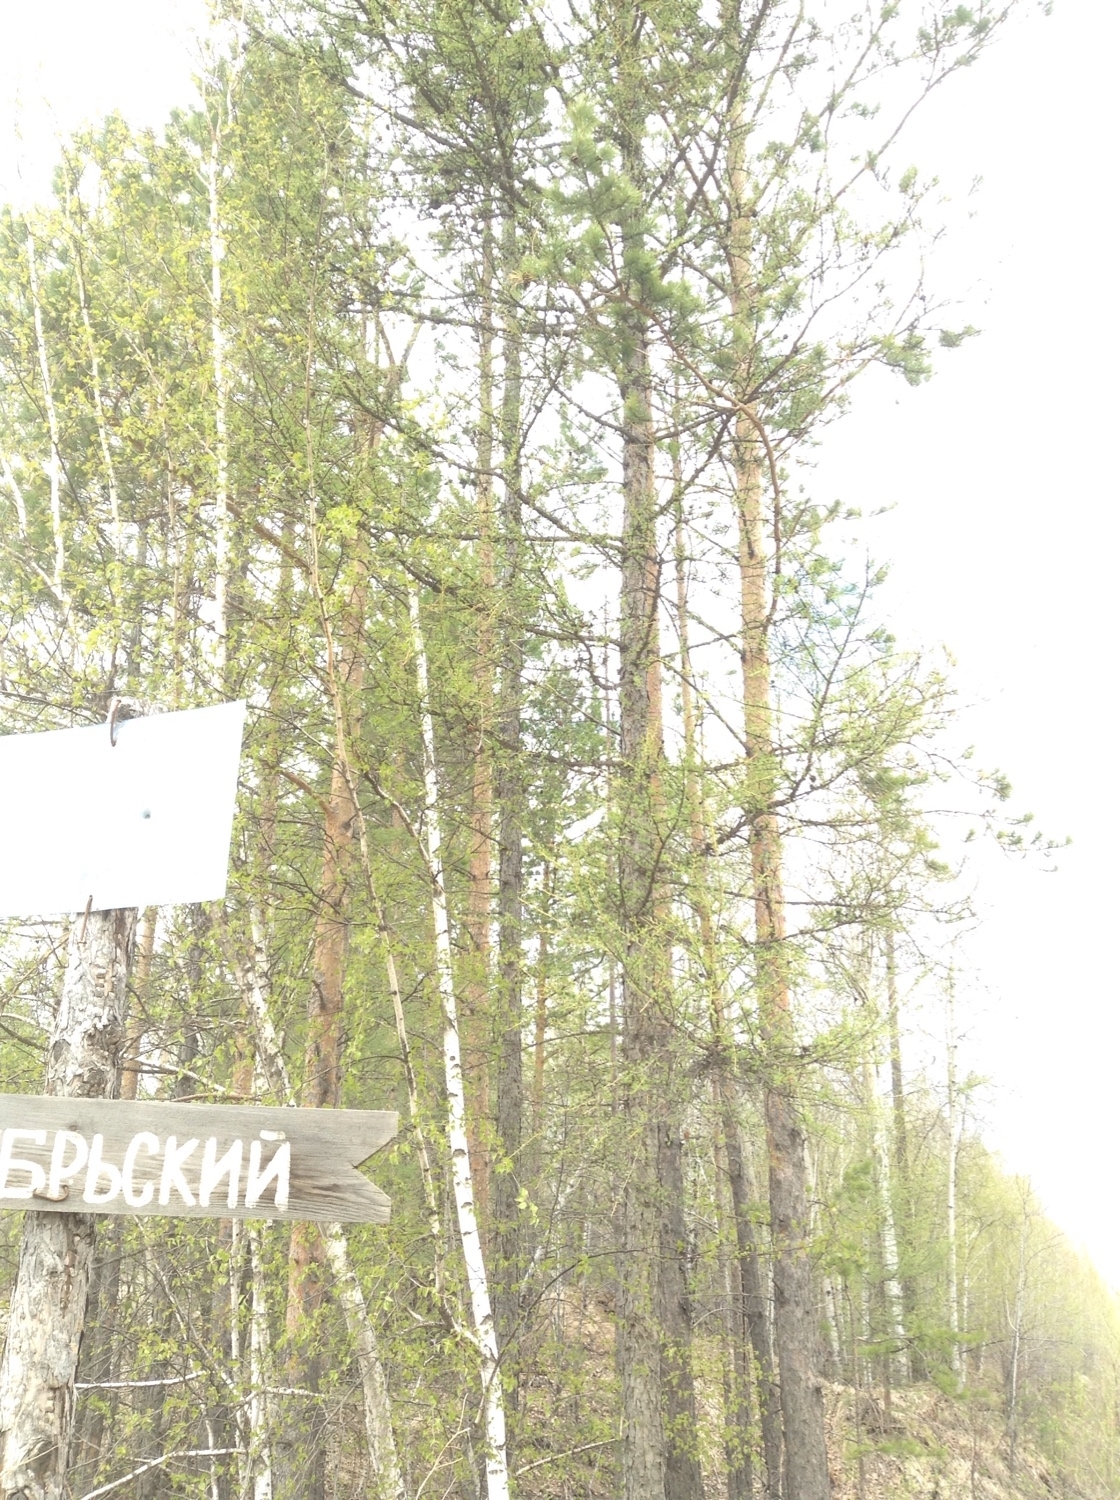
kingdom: Plantae
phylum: Tracheophyta
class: Pinopsida
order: Pinales
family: Pinaceae
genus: Pinus
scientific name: Pinus sylvestris
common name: Scots pine
